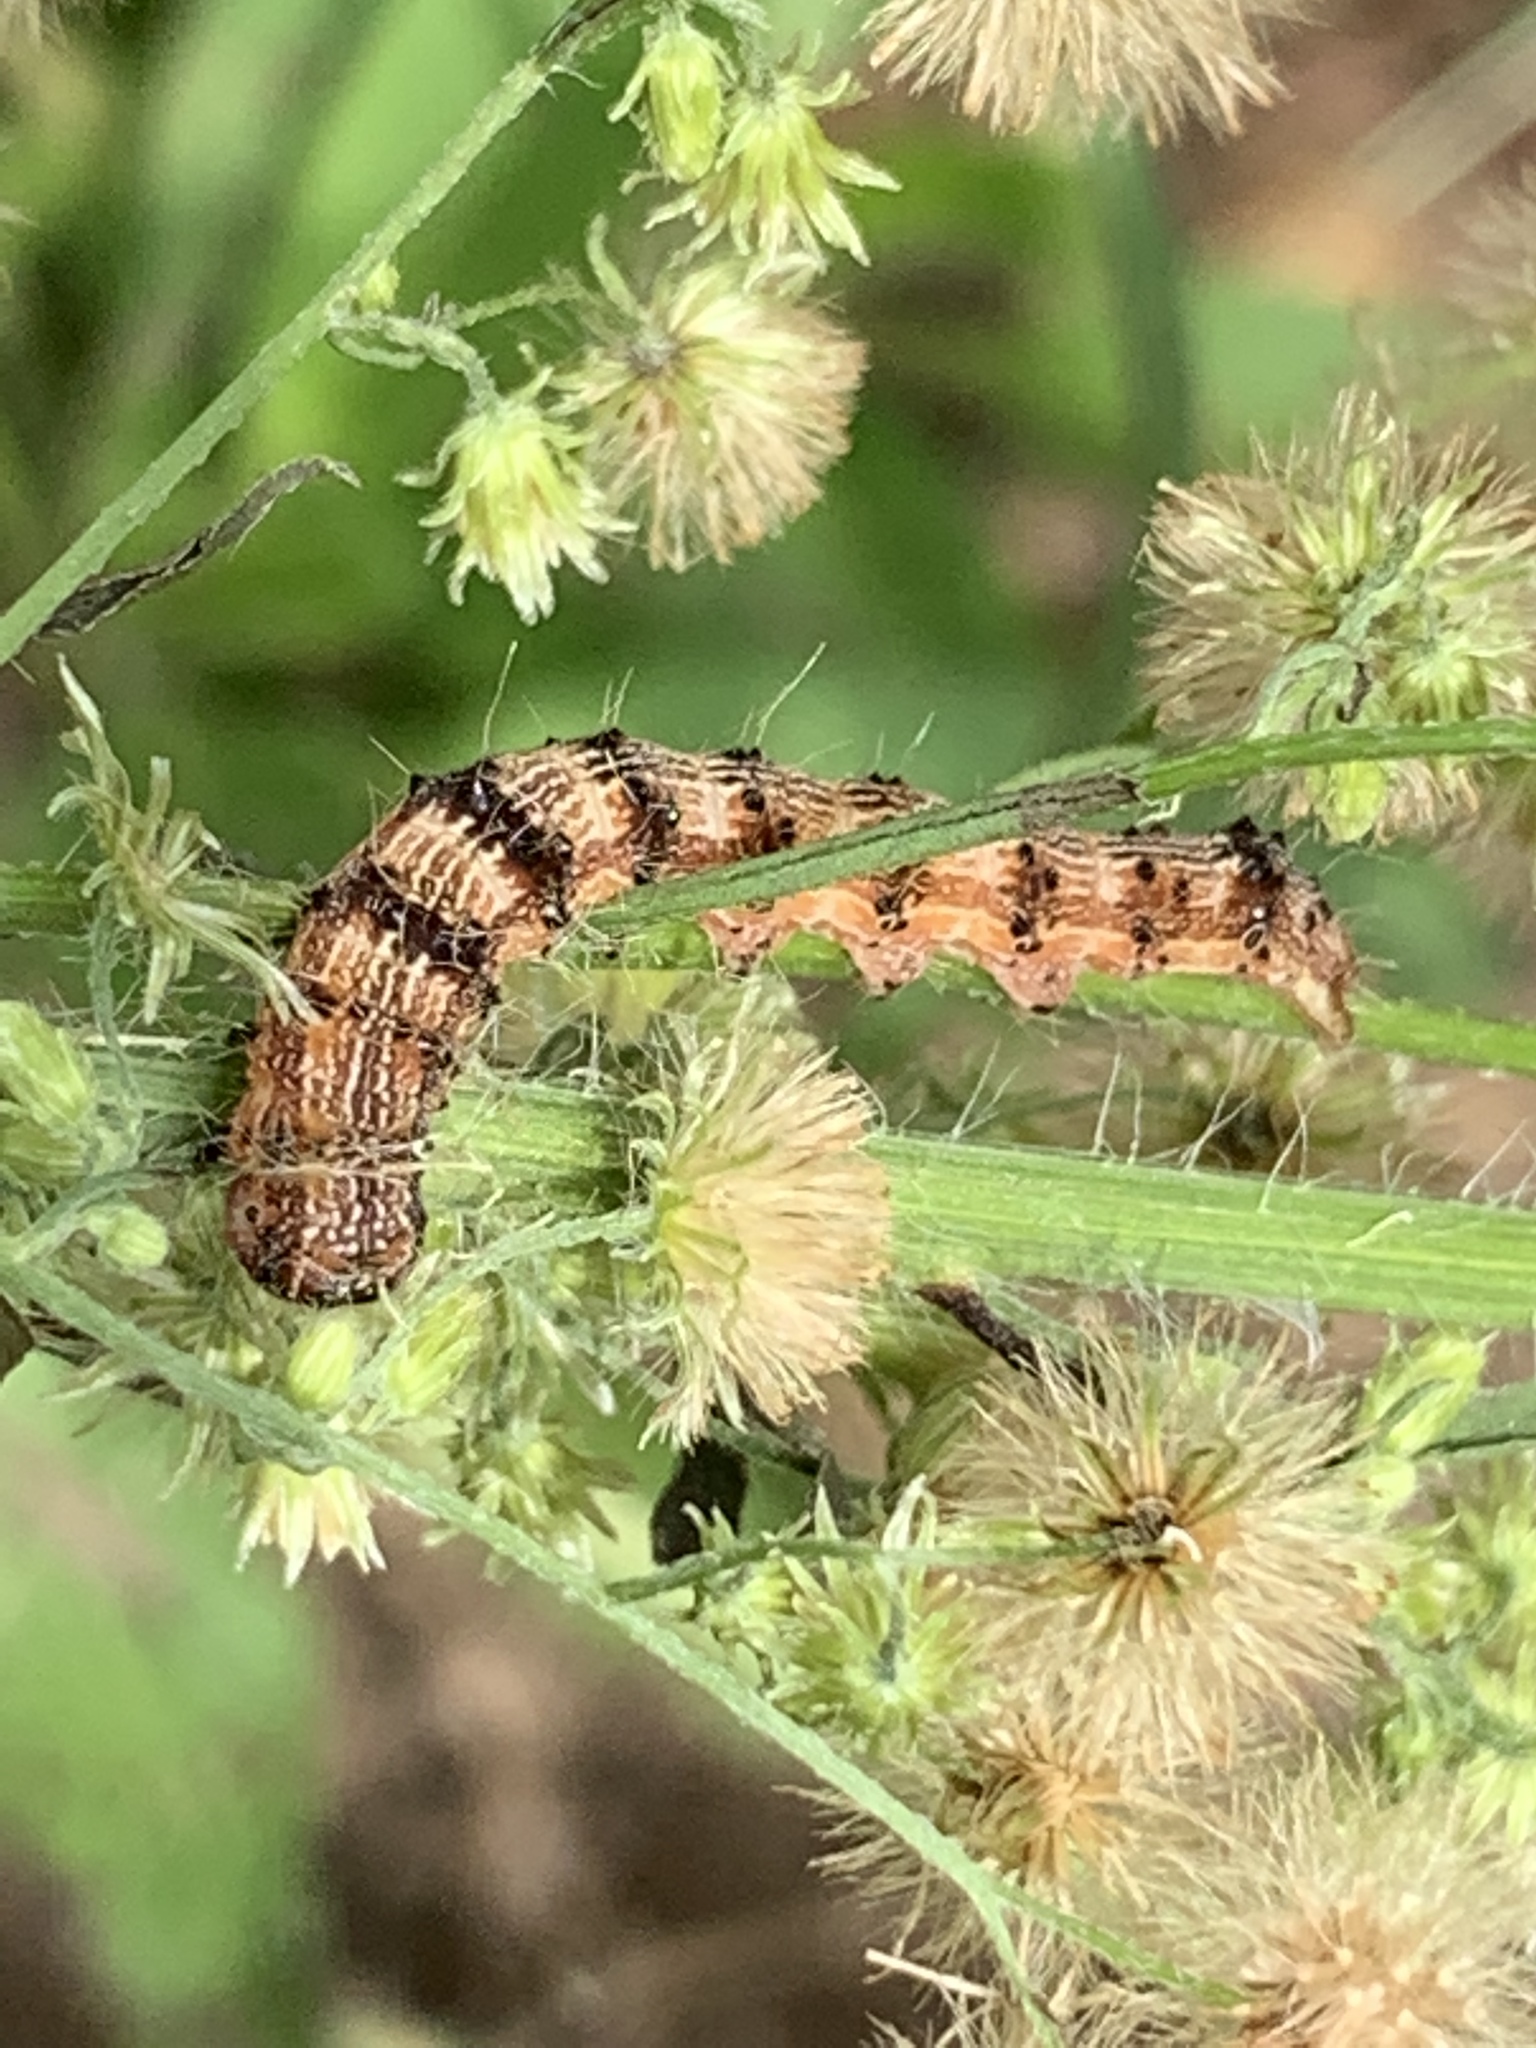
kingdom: Animalia
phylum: Arthropoda
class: Insecta
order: Lepidoptera
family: Noctuidae
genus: Chloridea
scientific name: Chloridea virescens
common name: Tobacco budworm
